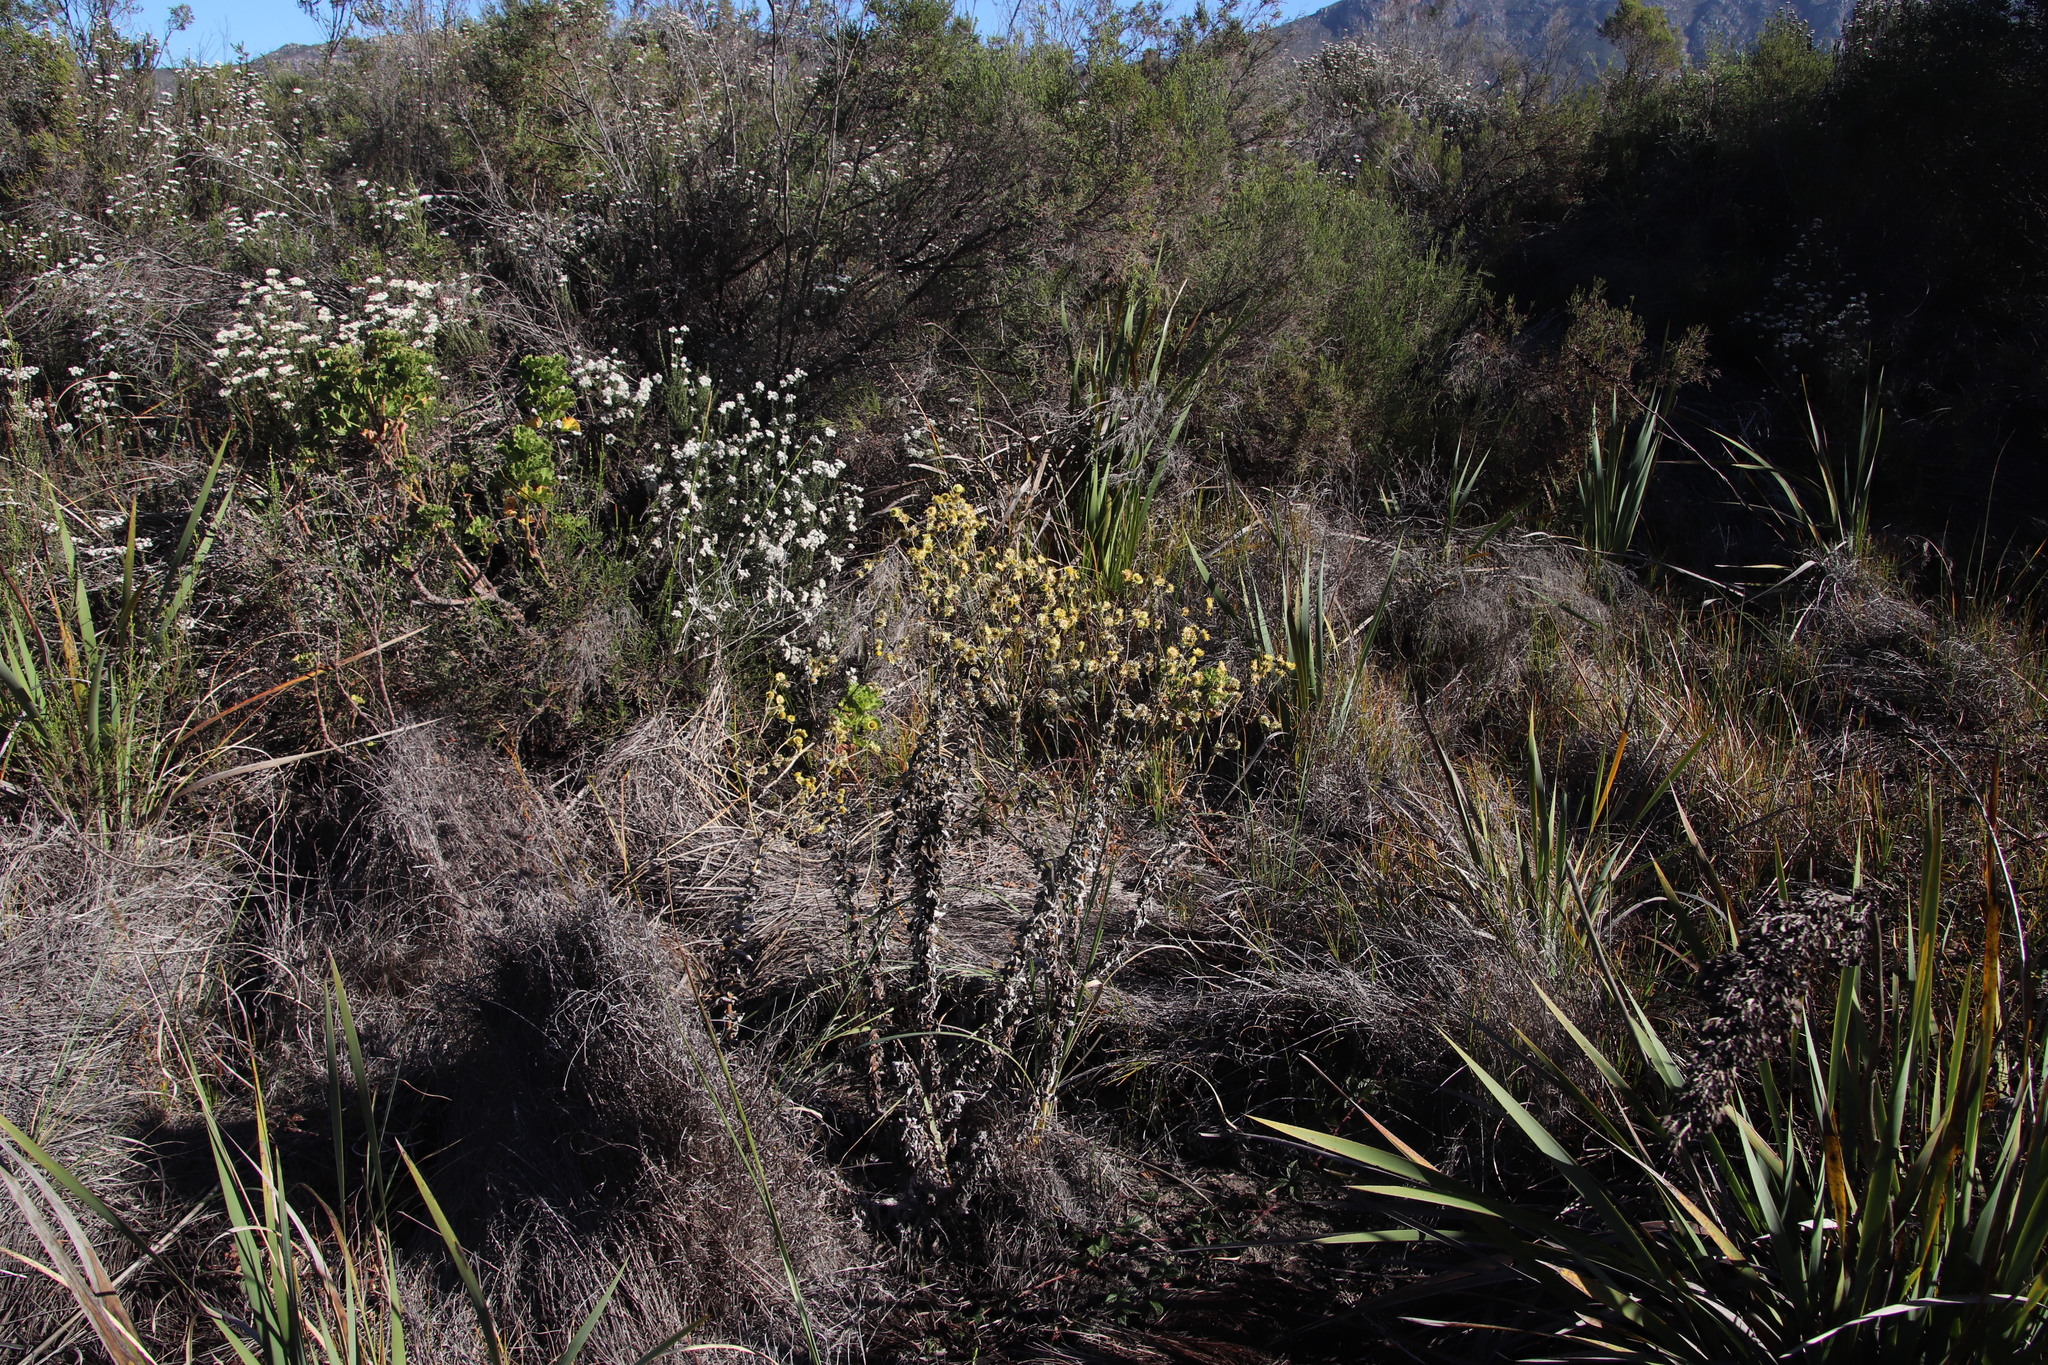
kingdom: Plantae
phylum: Tracheophyta
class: Magnoliopsida
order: Asterales
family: Asteraceae
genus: Helichrysum
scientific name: Helichrysum foetidum
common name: Stinking everlasting
